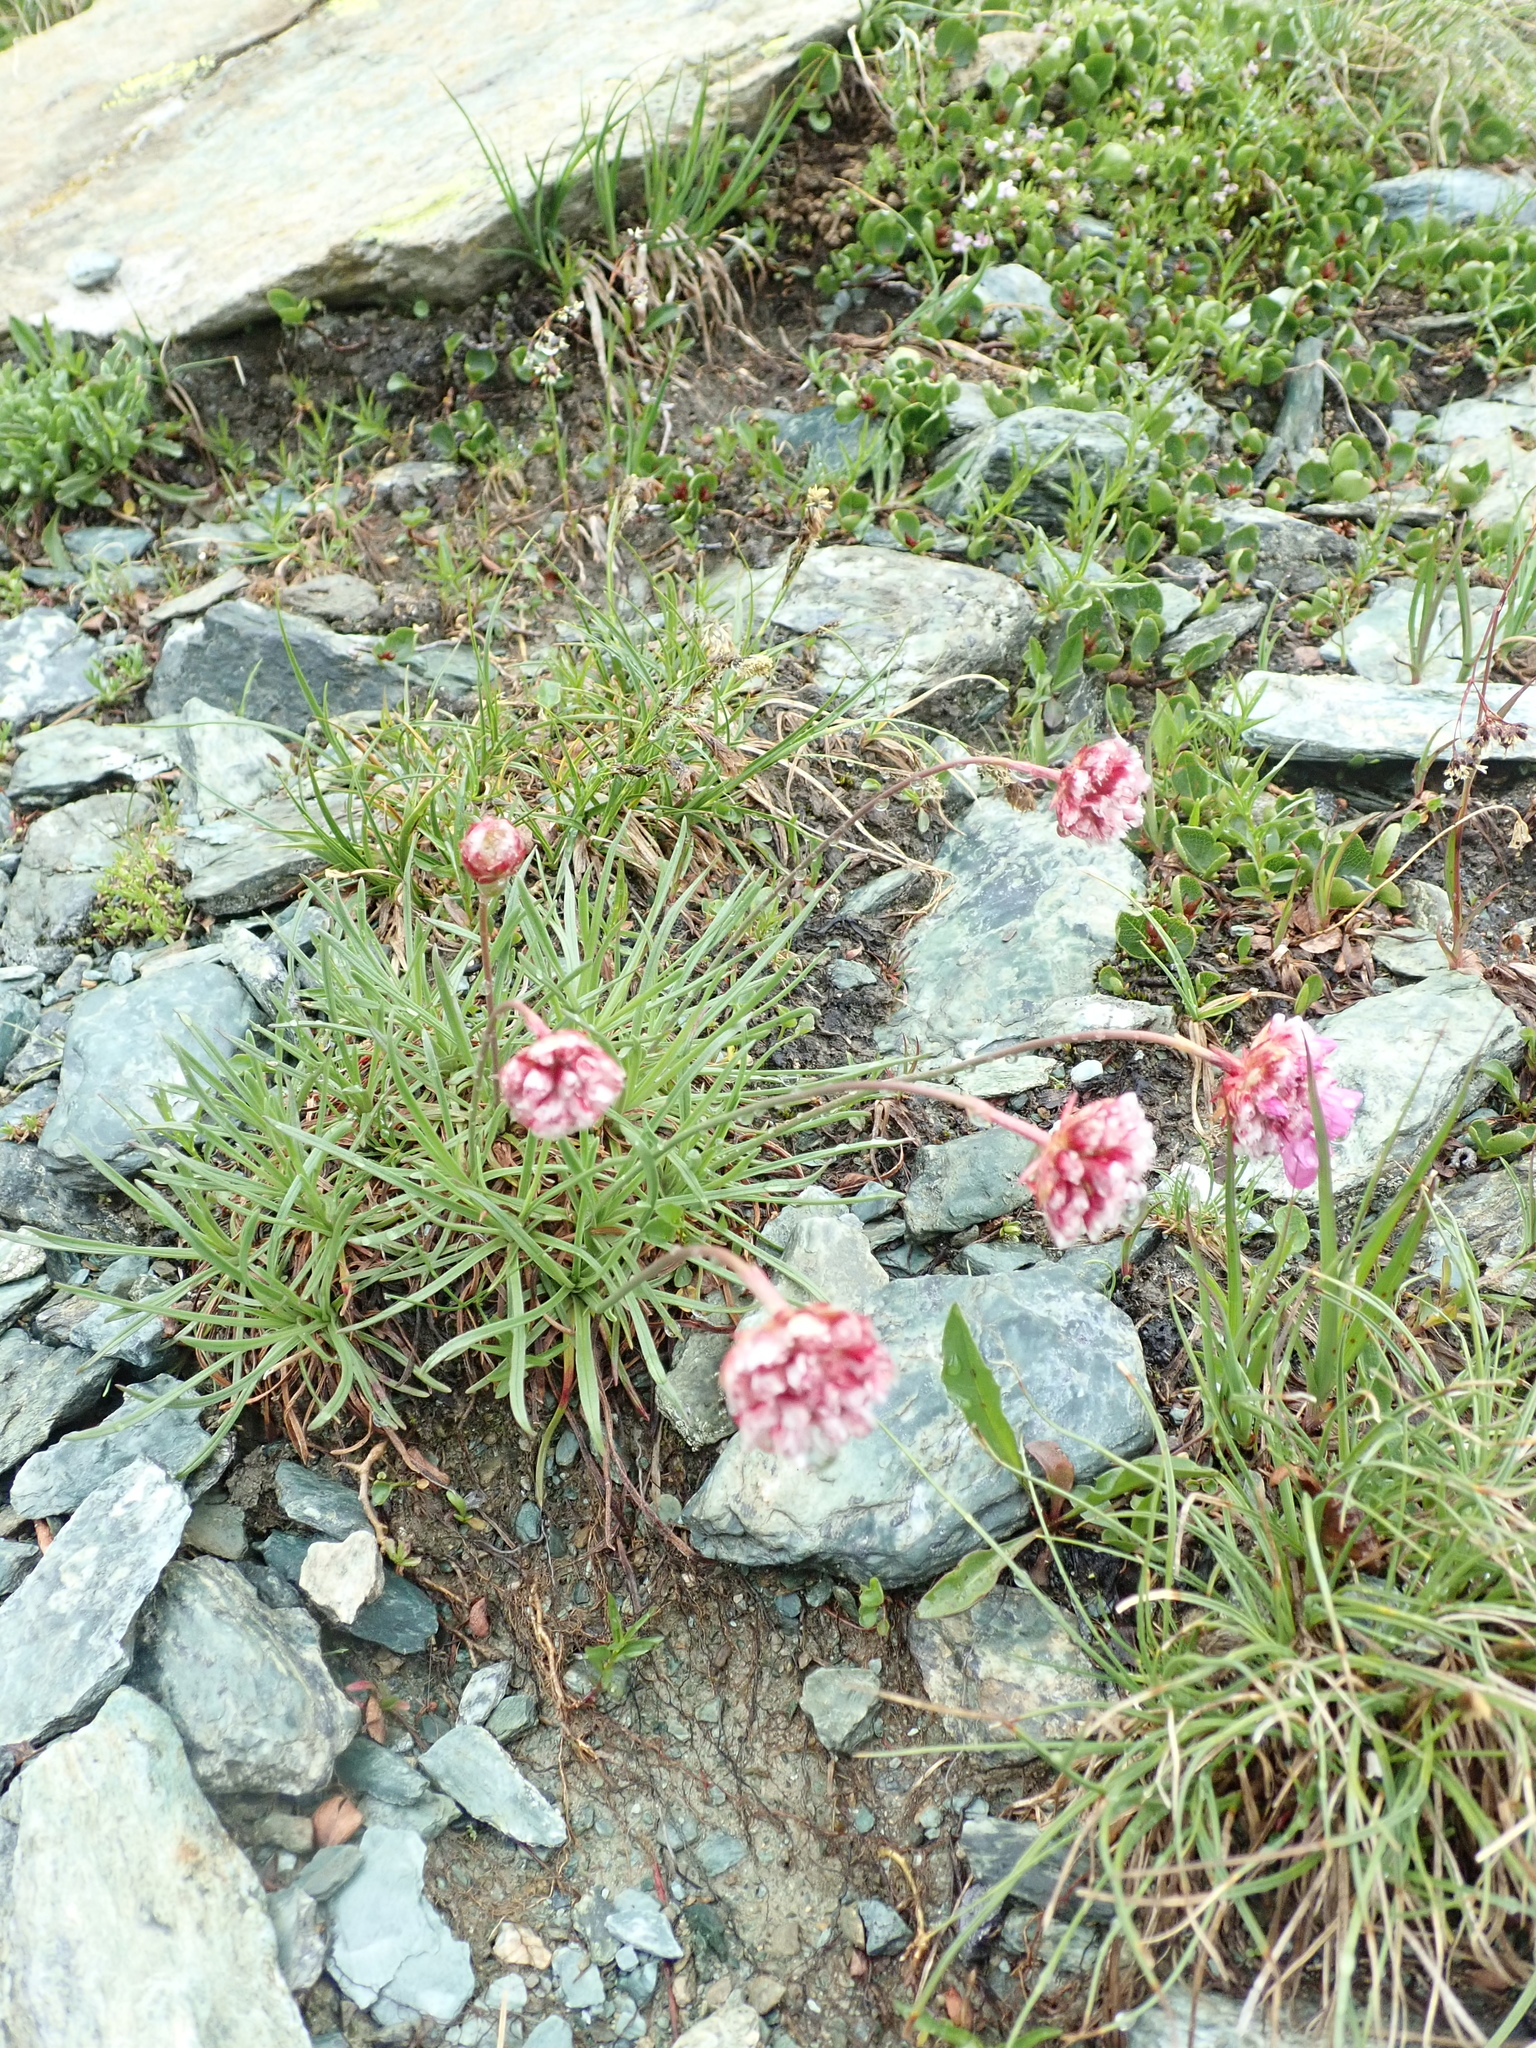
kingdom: Plantae
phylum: Tracheophyta
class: Magnoliopsida
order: Caryophyllales
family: Plumbaginaceae
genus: Armeria
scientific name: Armeria alpina
